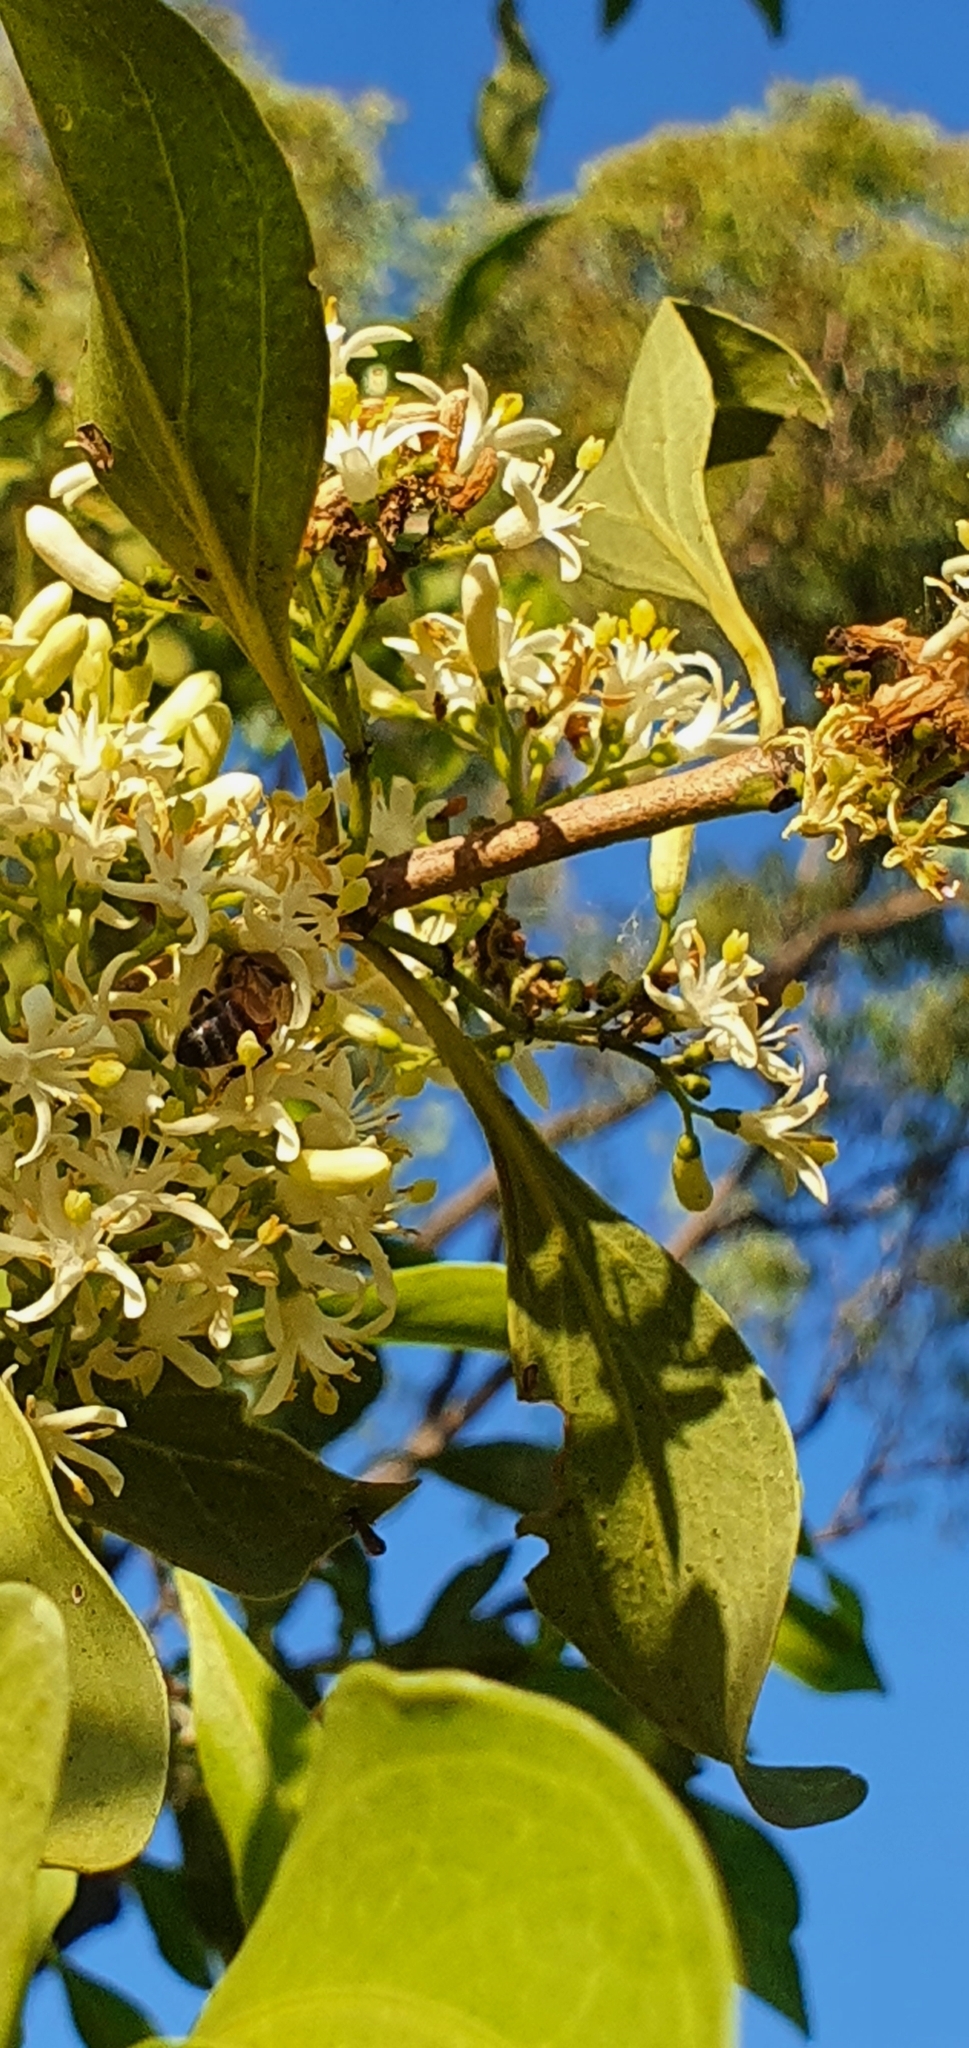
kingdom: Animalia
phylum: Arthropoda
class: Insecta
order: Hymenoptera
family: Apidae
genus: Apis
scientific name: Apis mellifera
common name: Honey bee
